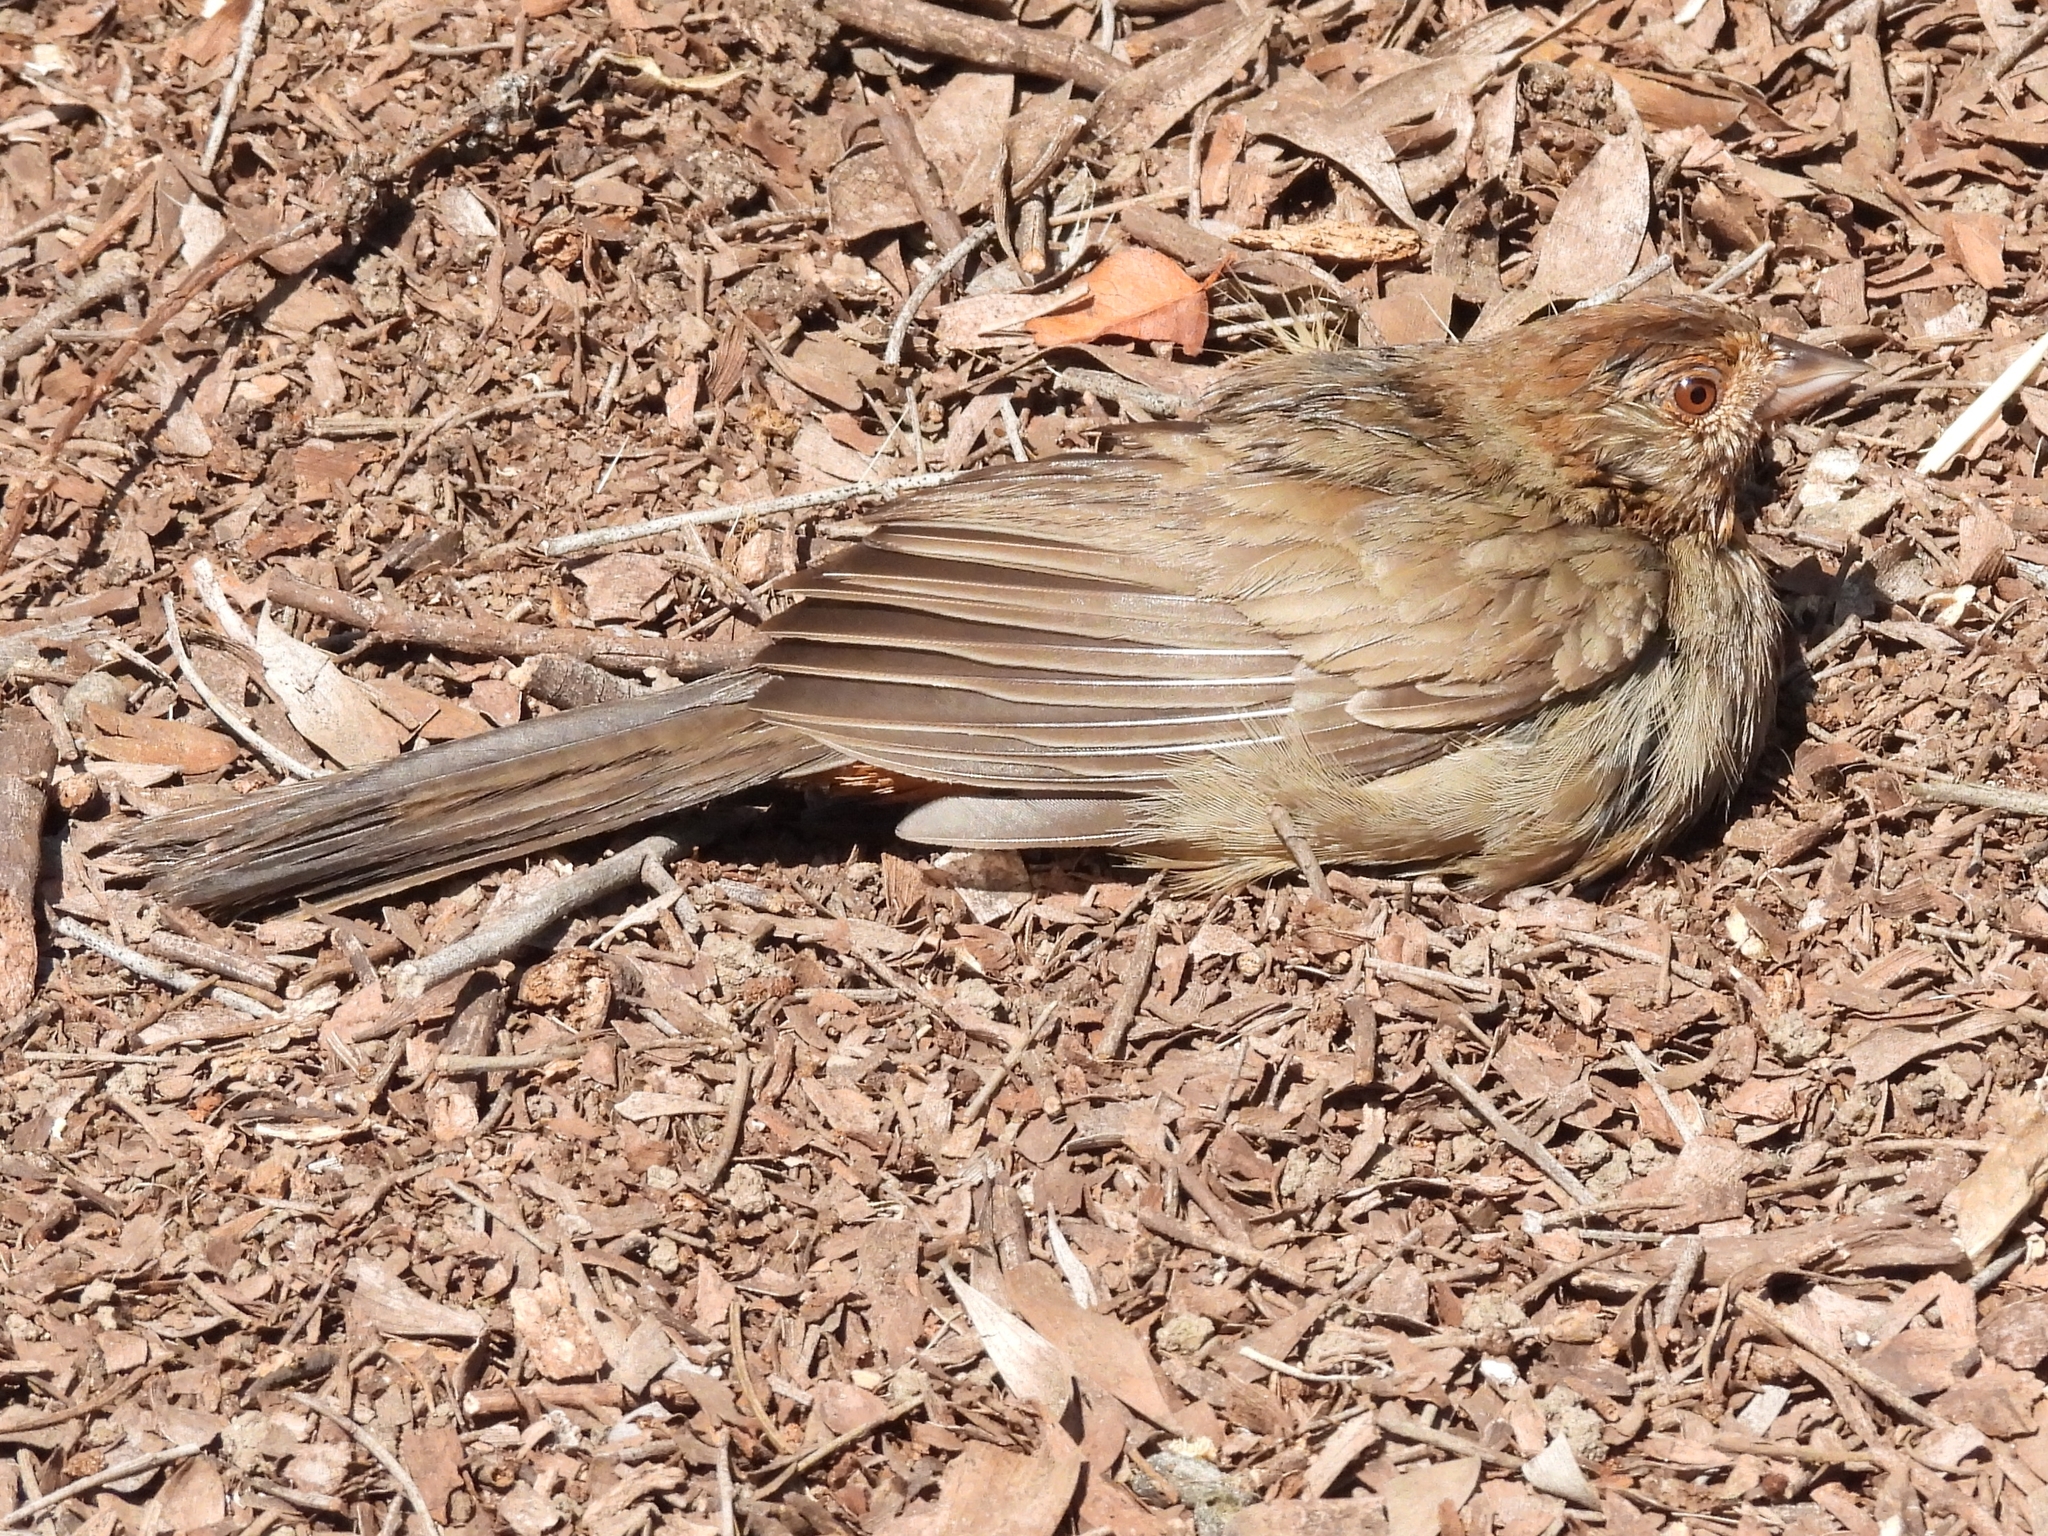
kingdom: Animalia
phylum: Chordata
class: Aves
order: Passeriformes
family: Passerellidae
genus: Melozone
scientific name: Melozone crissalis
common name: California towhee
